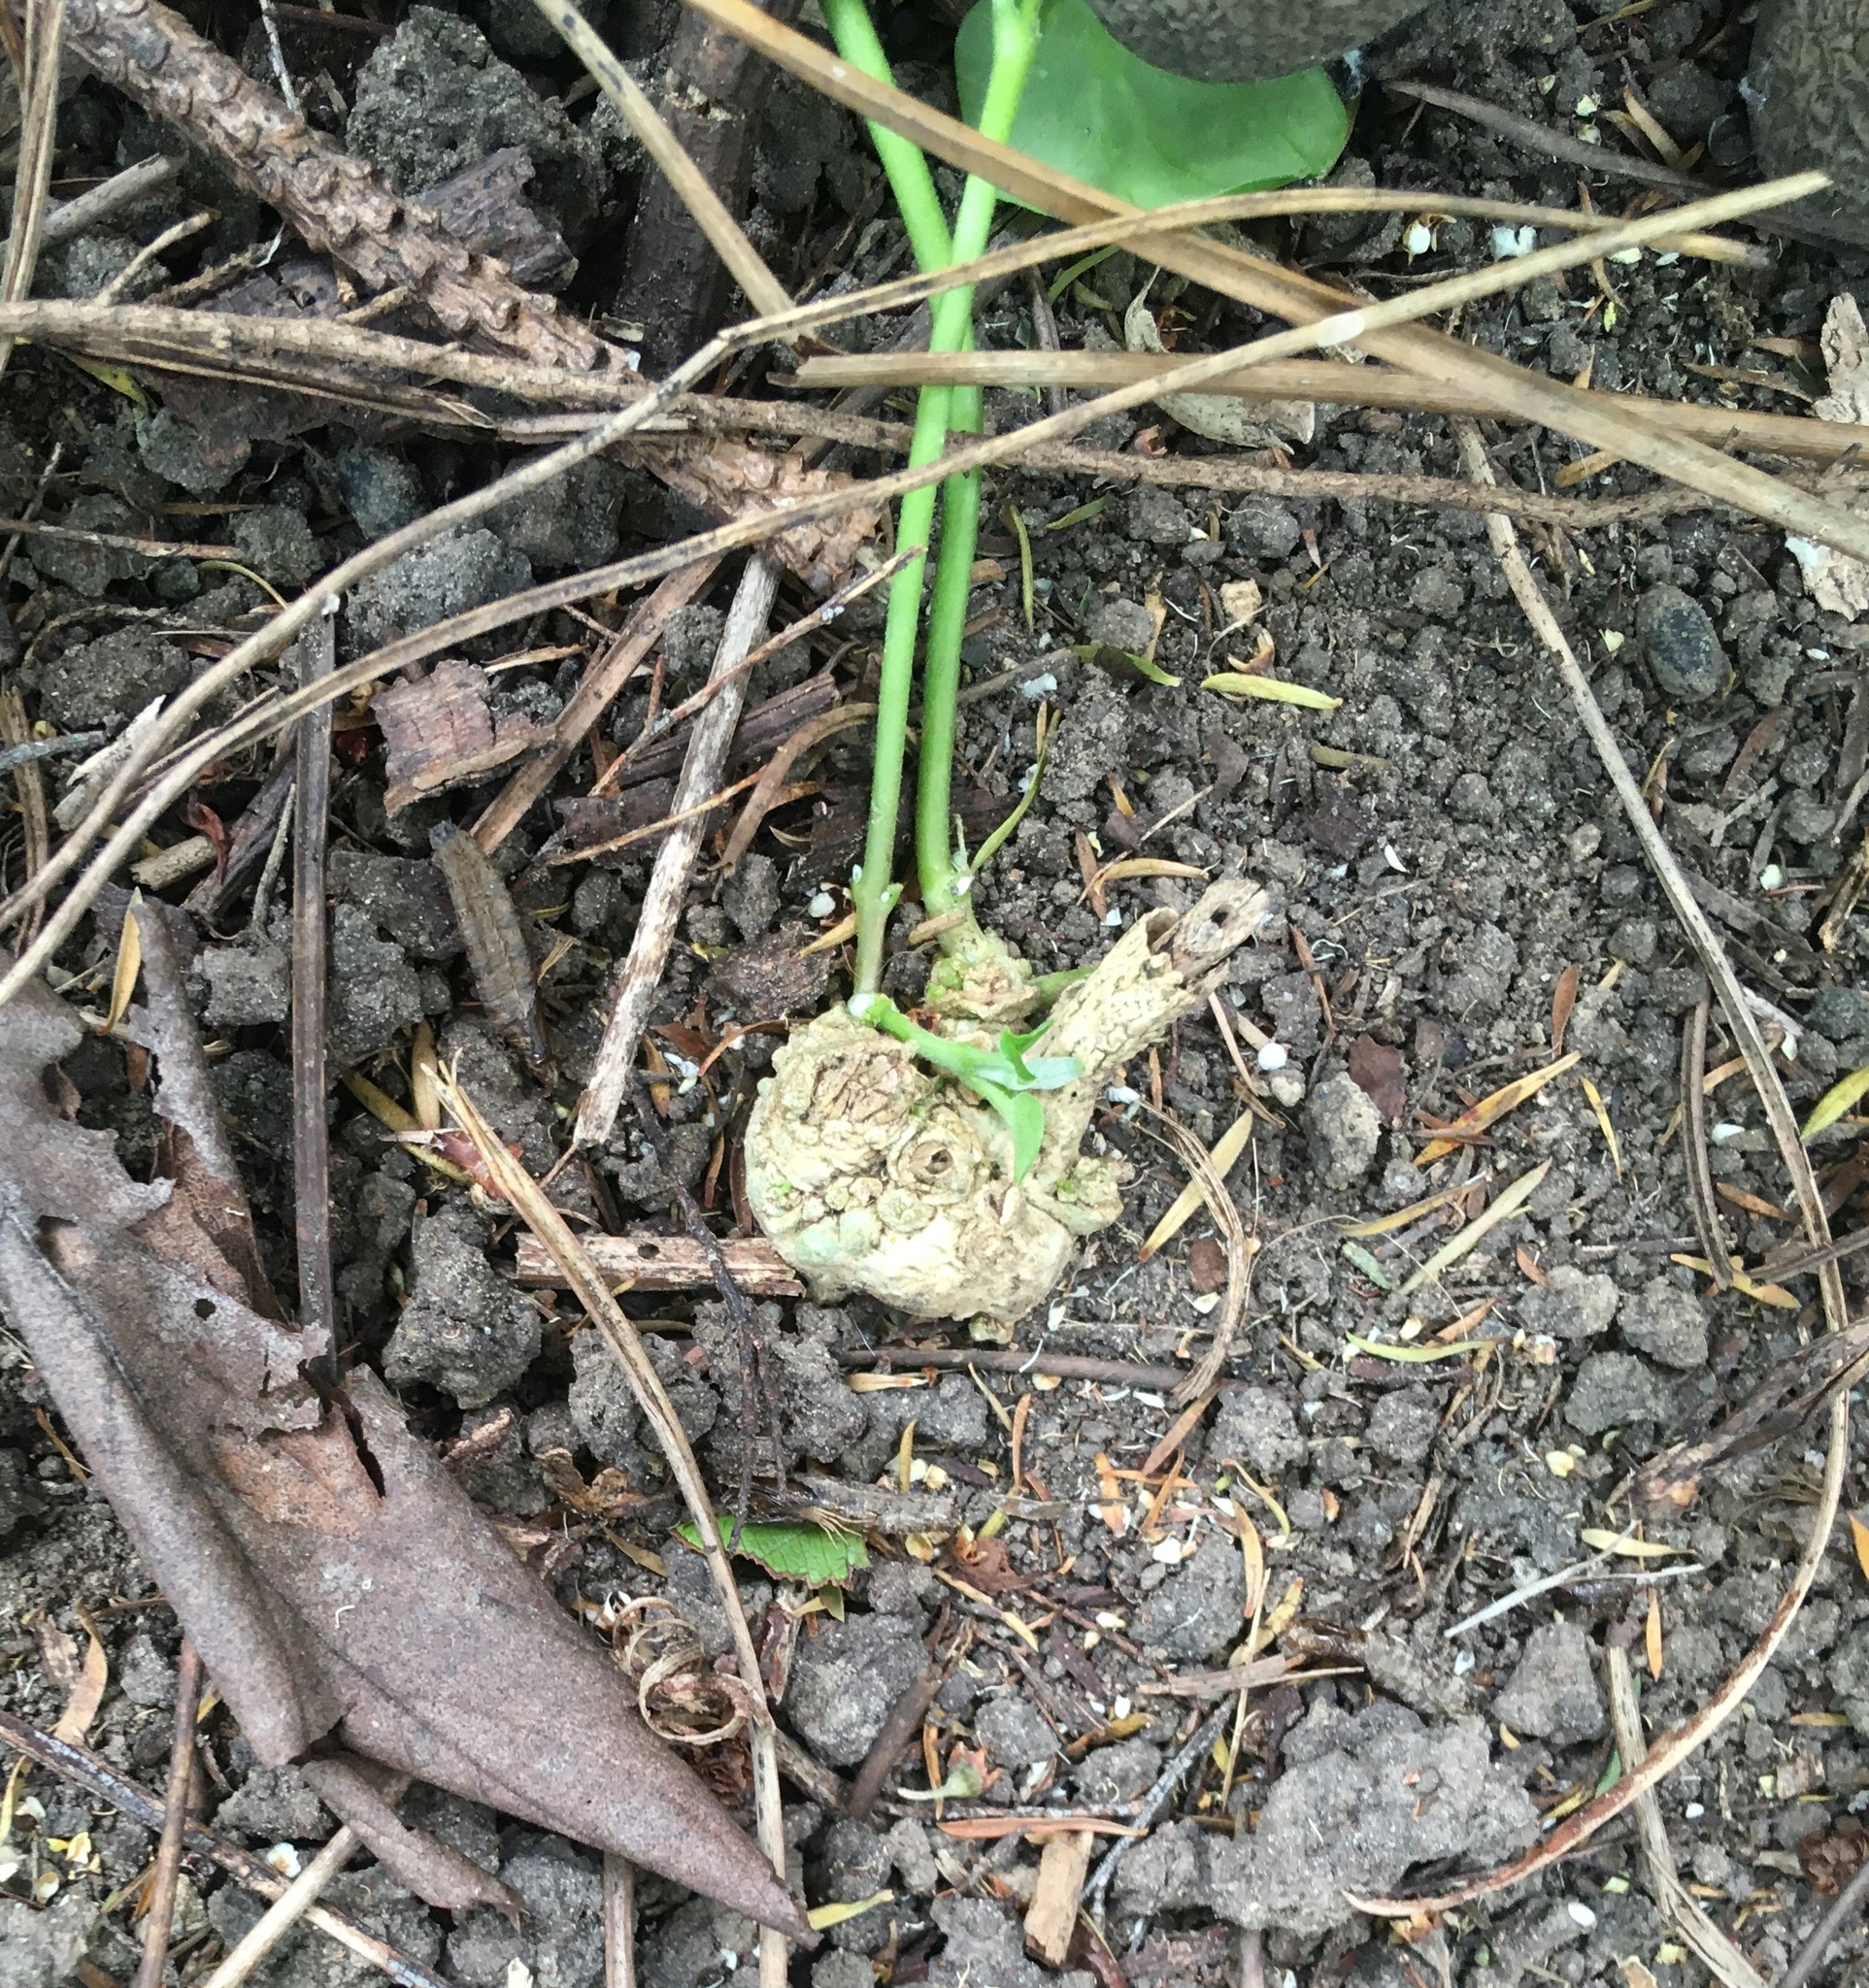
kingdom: Plantae
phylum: Tracheophyta
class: Magnoliopsida
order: Gentianales
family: Apocynaceae
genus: Araujia
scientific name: Araujia sericifera
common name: White bladderflower
